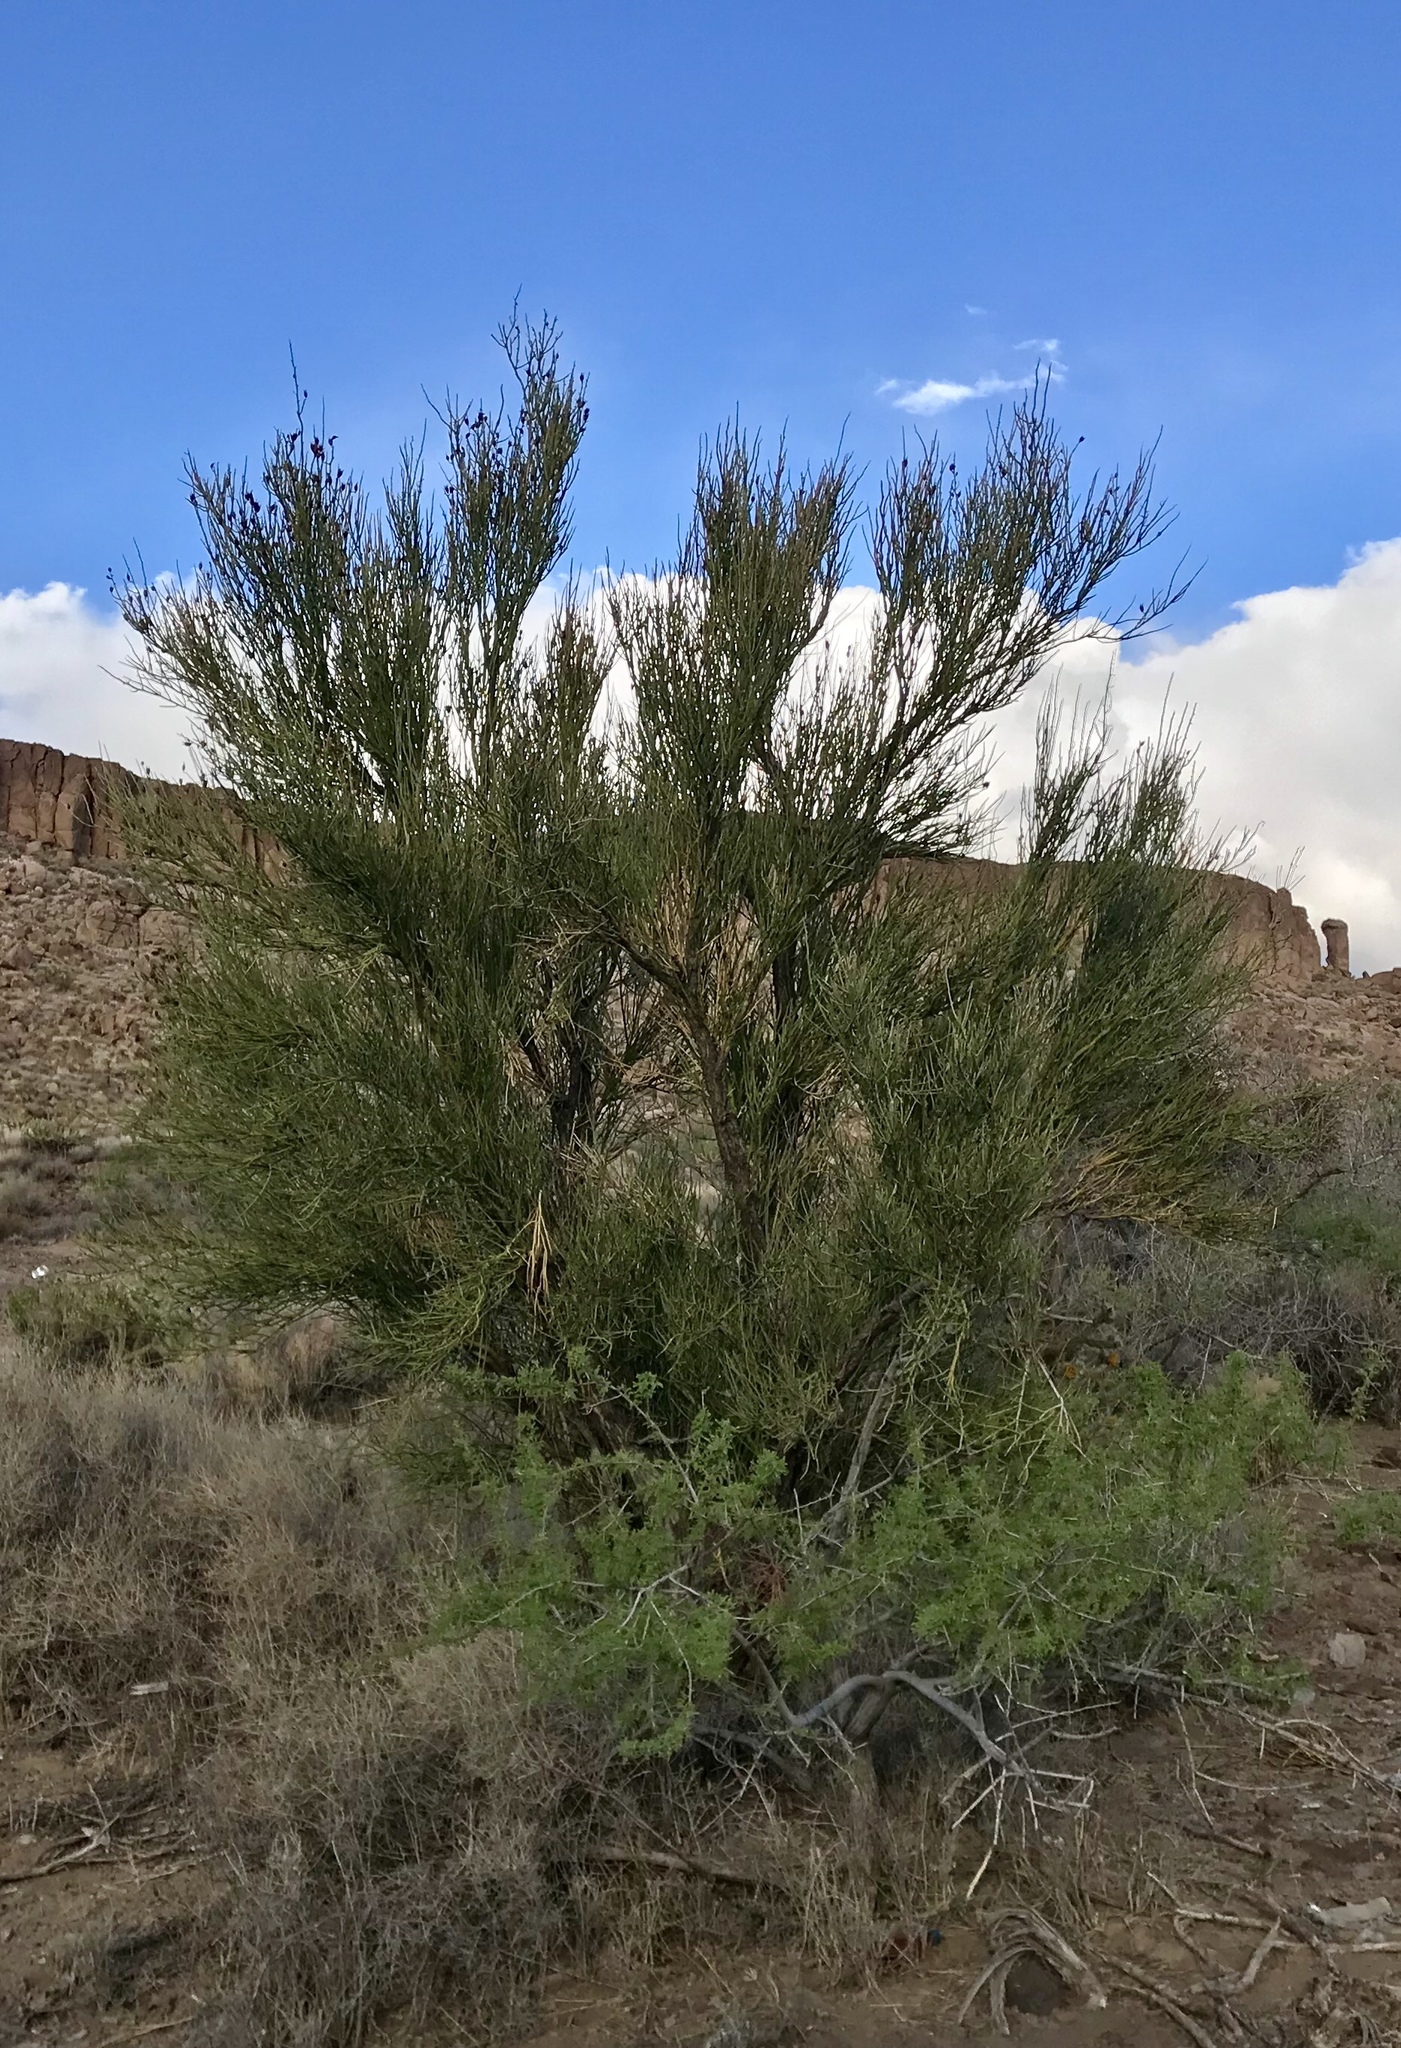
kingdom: Plantae
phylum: Tracheophyta
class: Magnoliopsida
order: Celastrales
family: Celastraceae
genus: Canotia
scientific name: Canotia holacantha
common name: Crucifixion thorns
